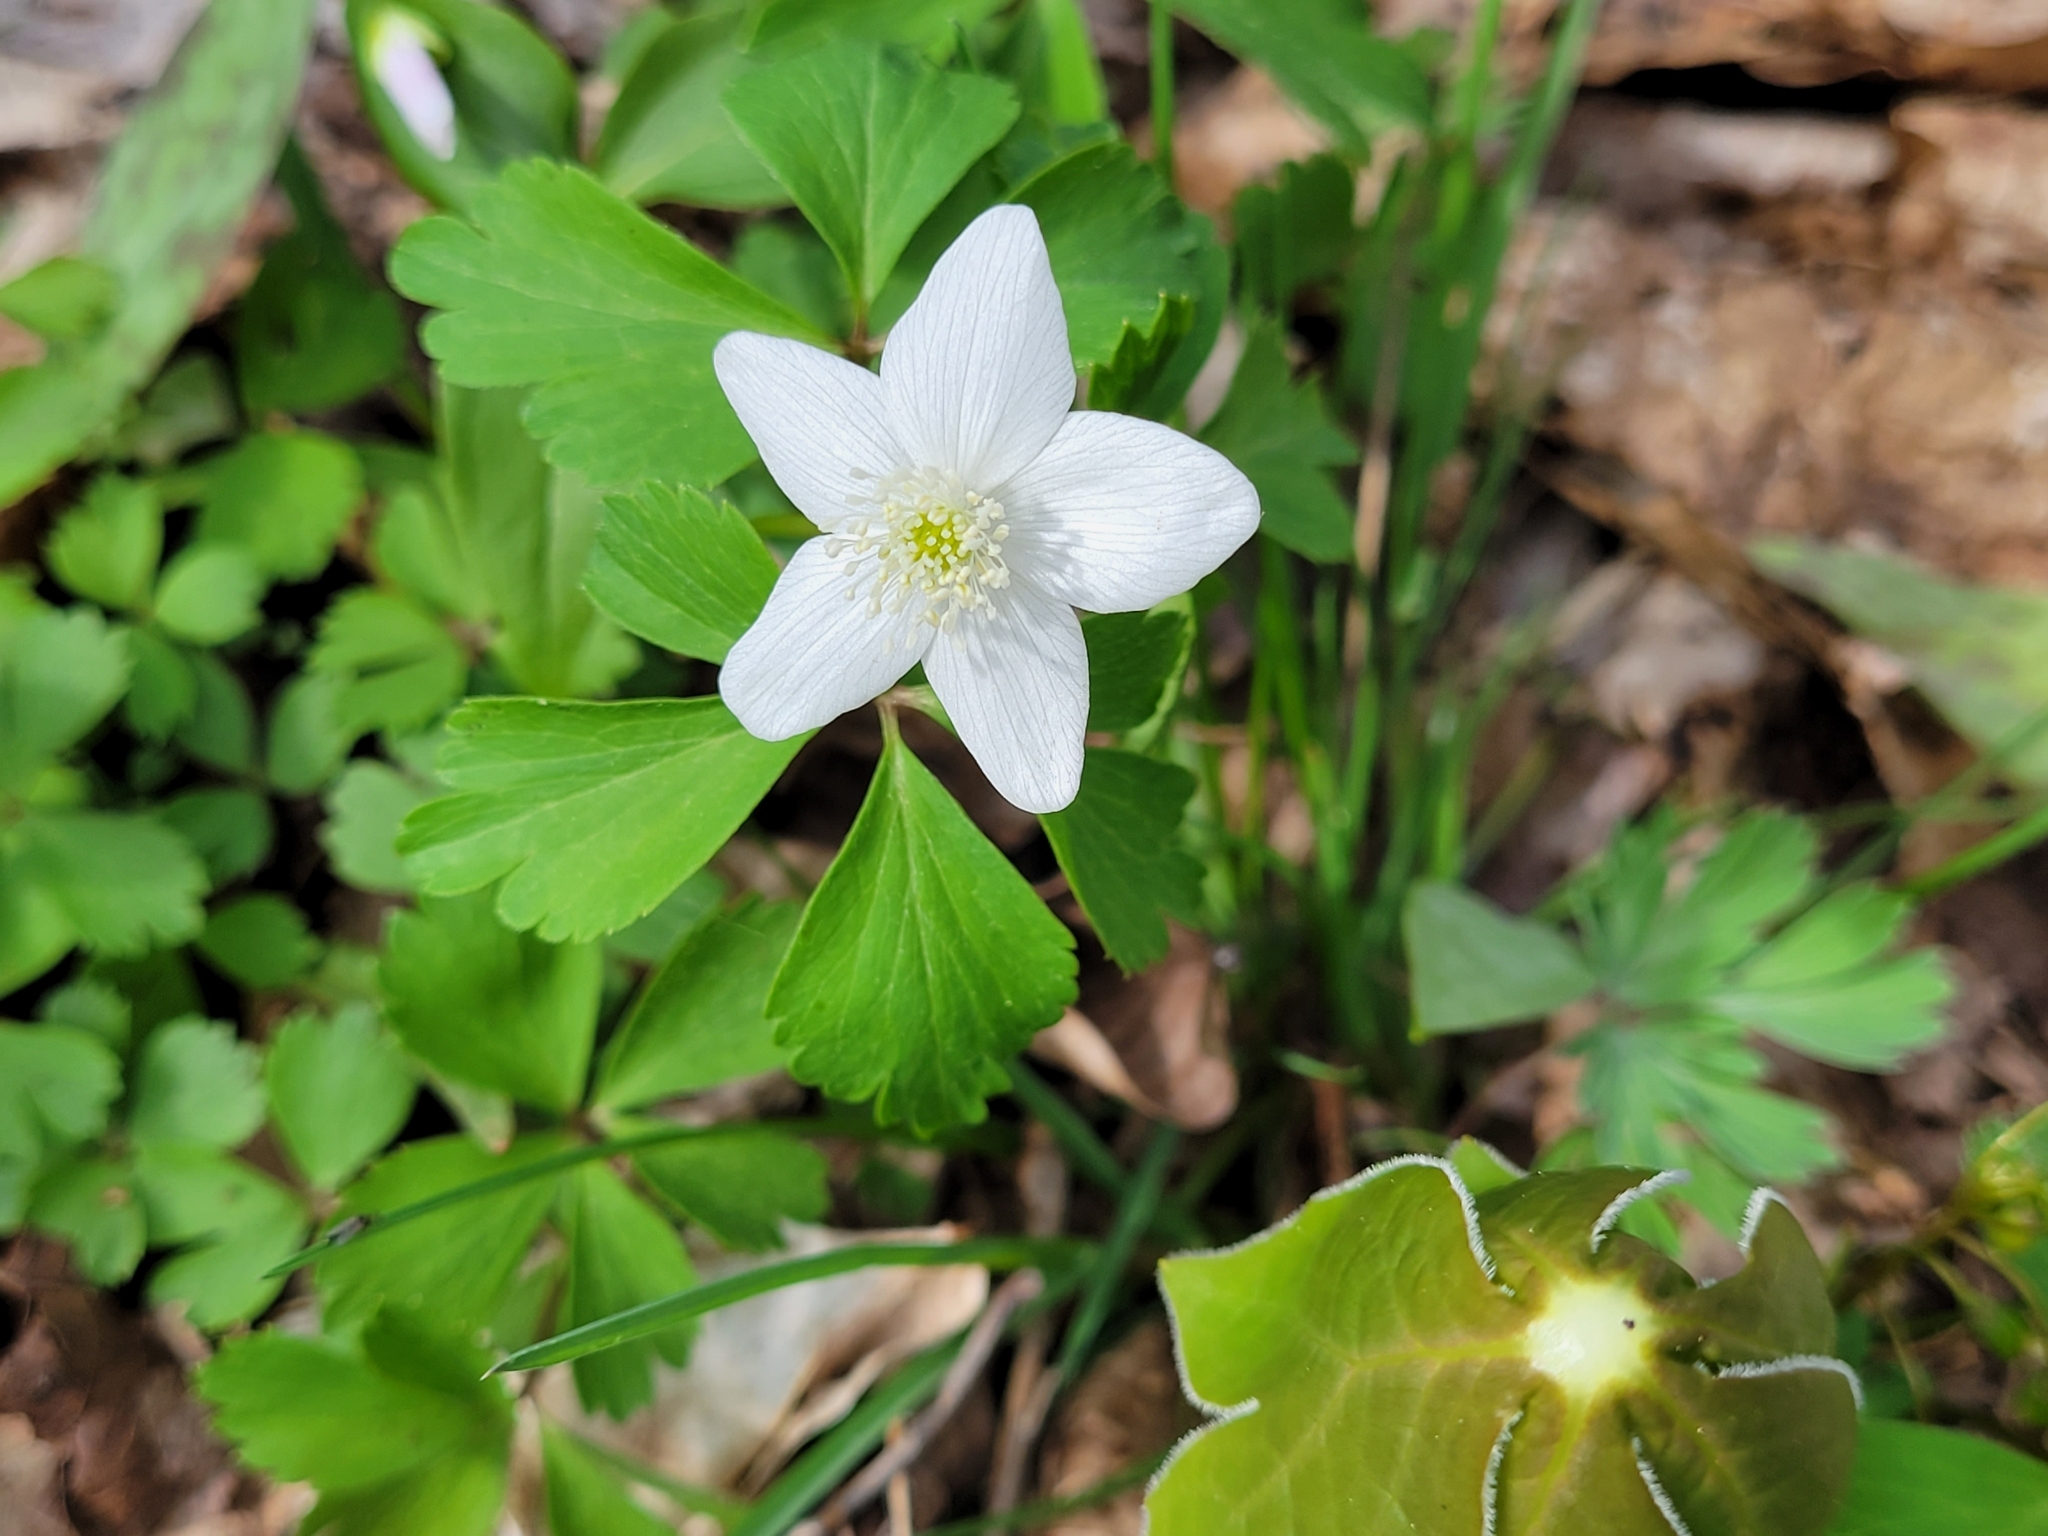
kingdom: Plantae
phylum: Tracheophyta
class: Magnoliopsida
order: Ranunculales
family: Ranunculaceae
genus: Anemone
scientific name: Anemone quinquefolia
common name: Wood anemone
